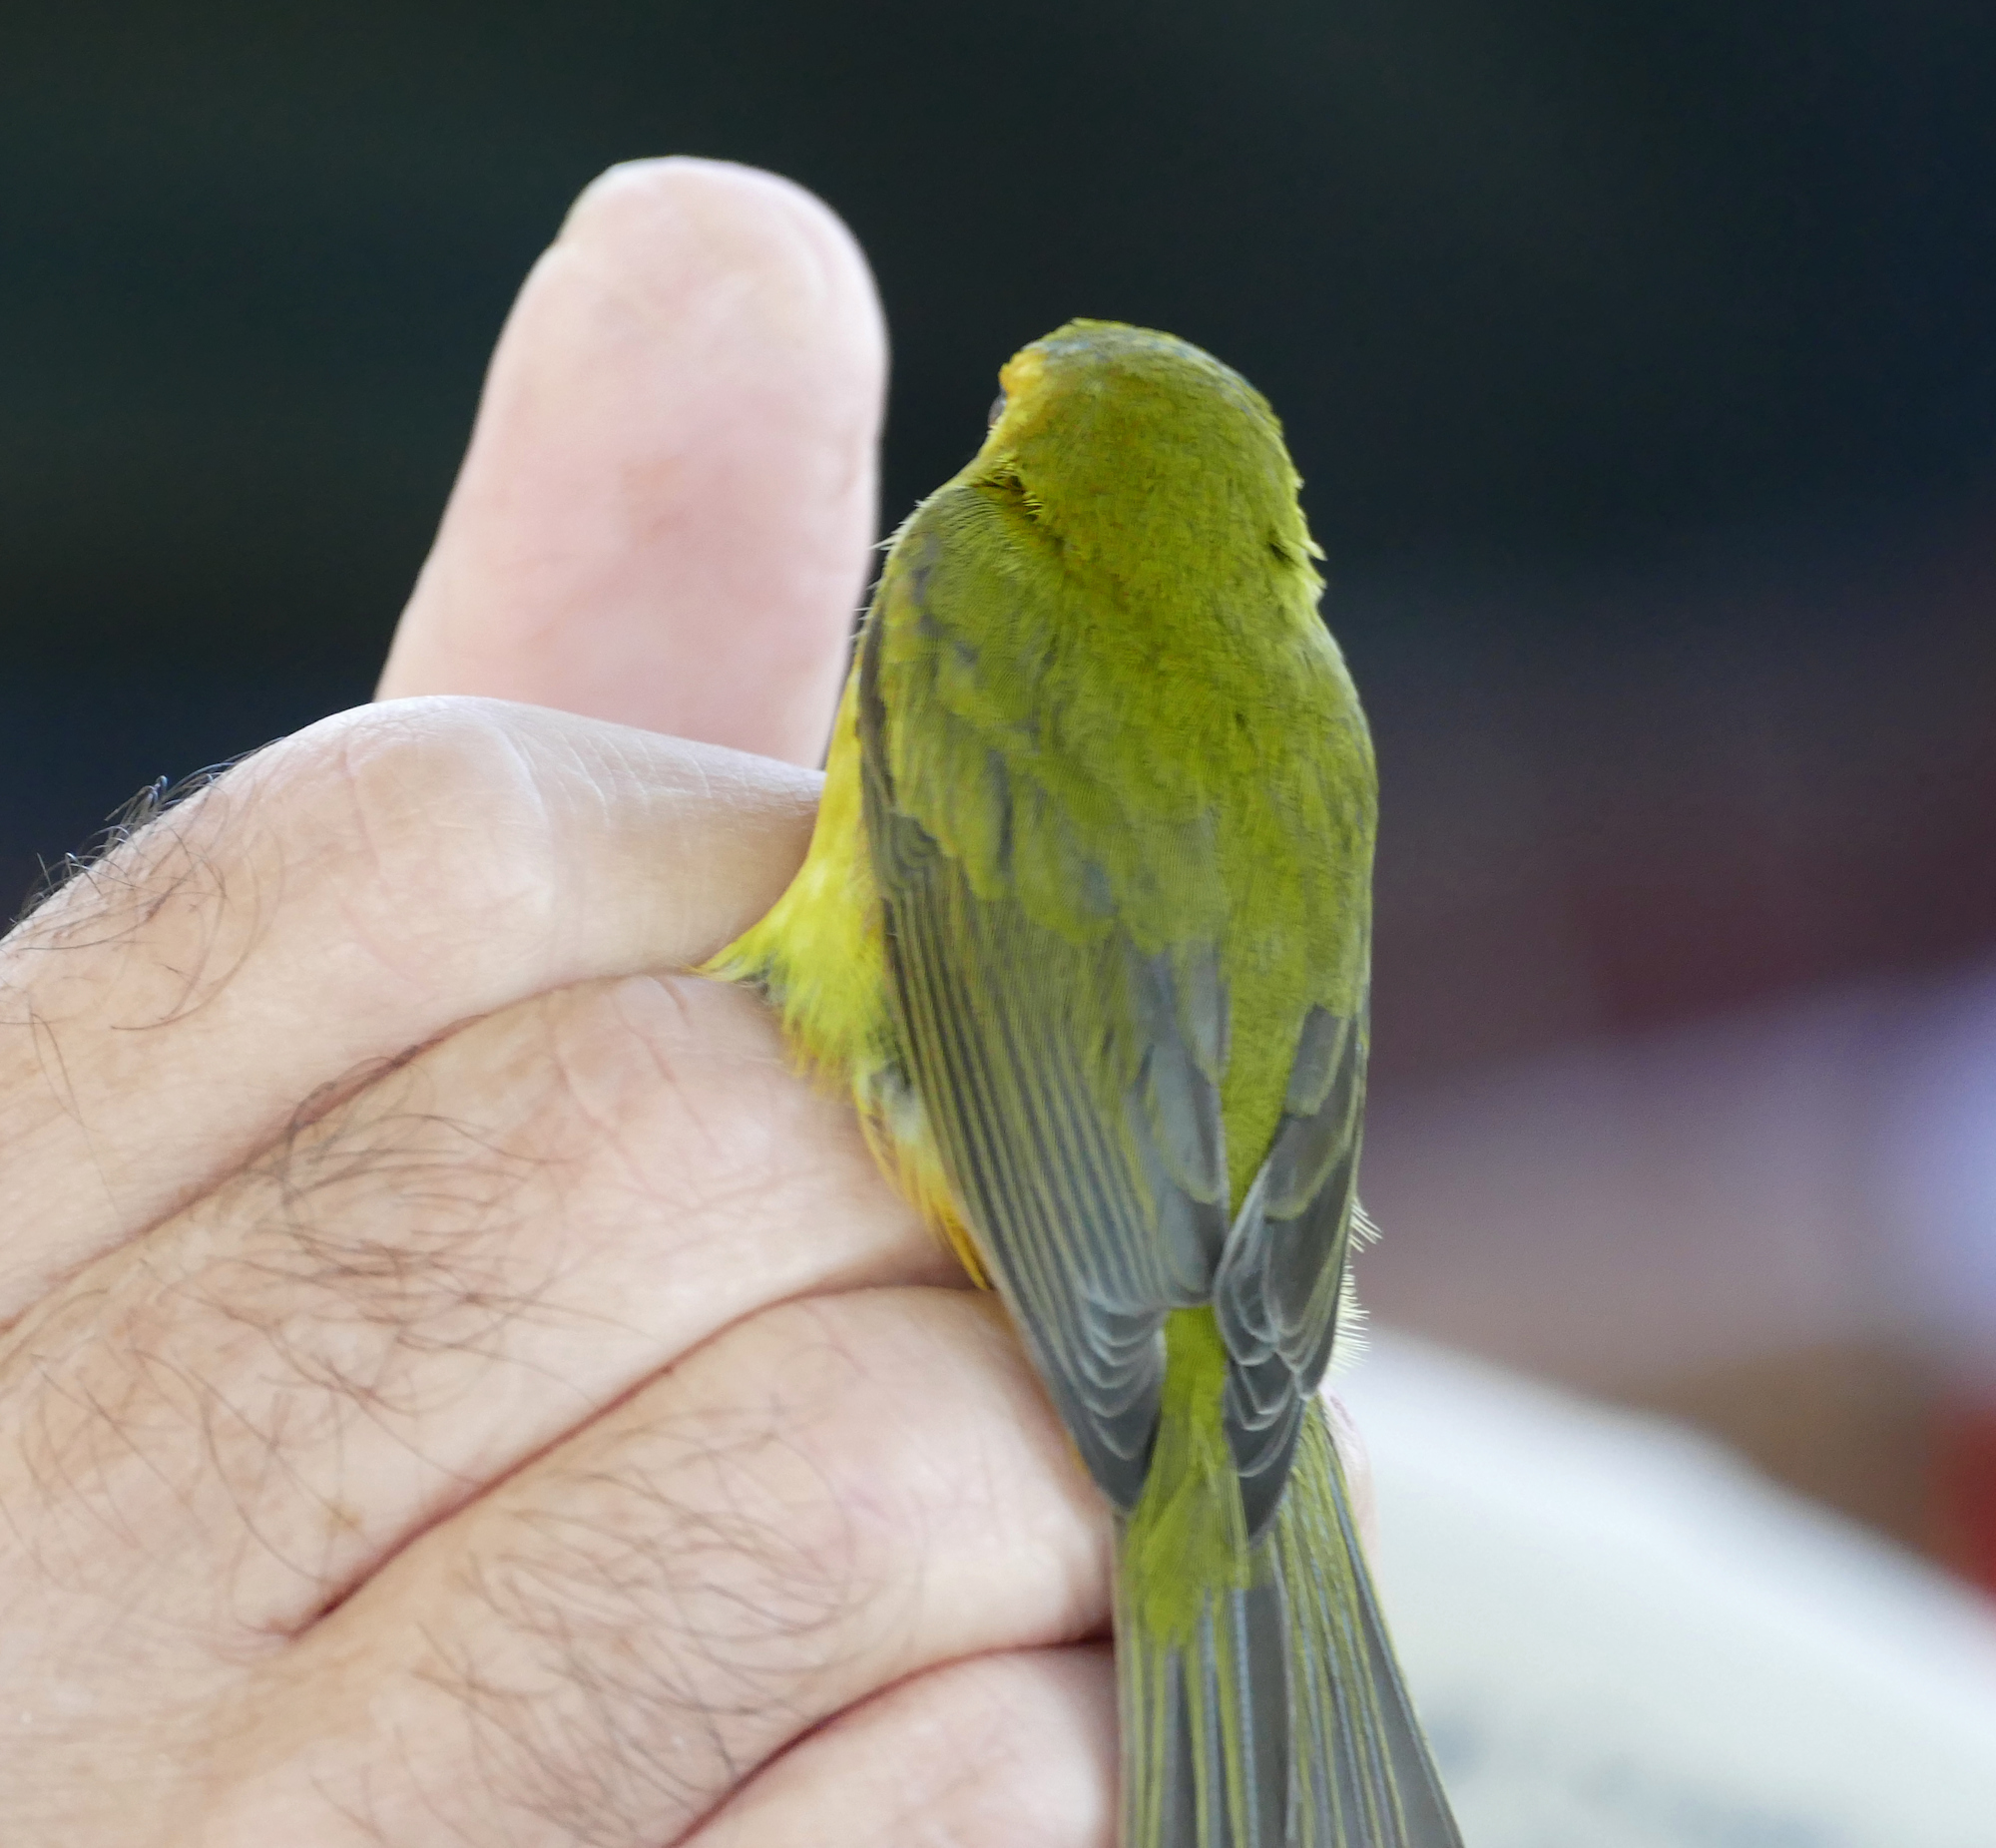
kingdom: Animalia
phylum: Chordata
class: Aves
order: Passeriformes
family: Parulidae
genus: Cardellina
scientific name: Cardellina pusilla
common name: Wilson's warbler
